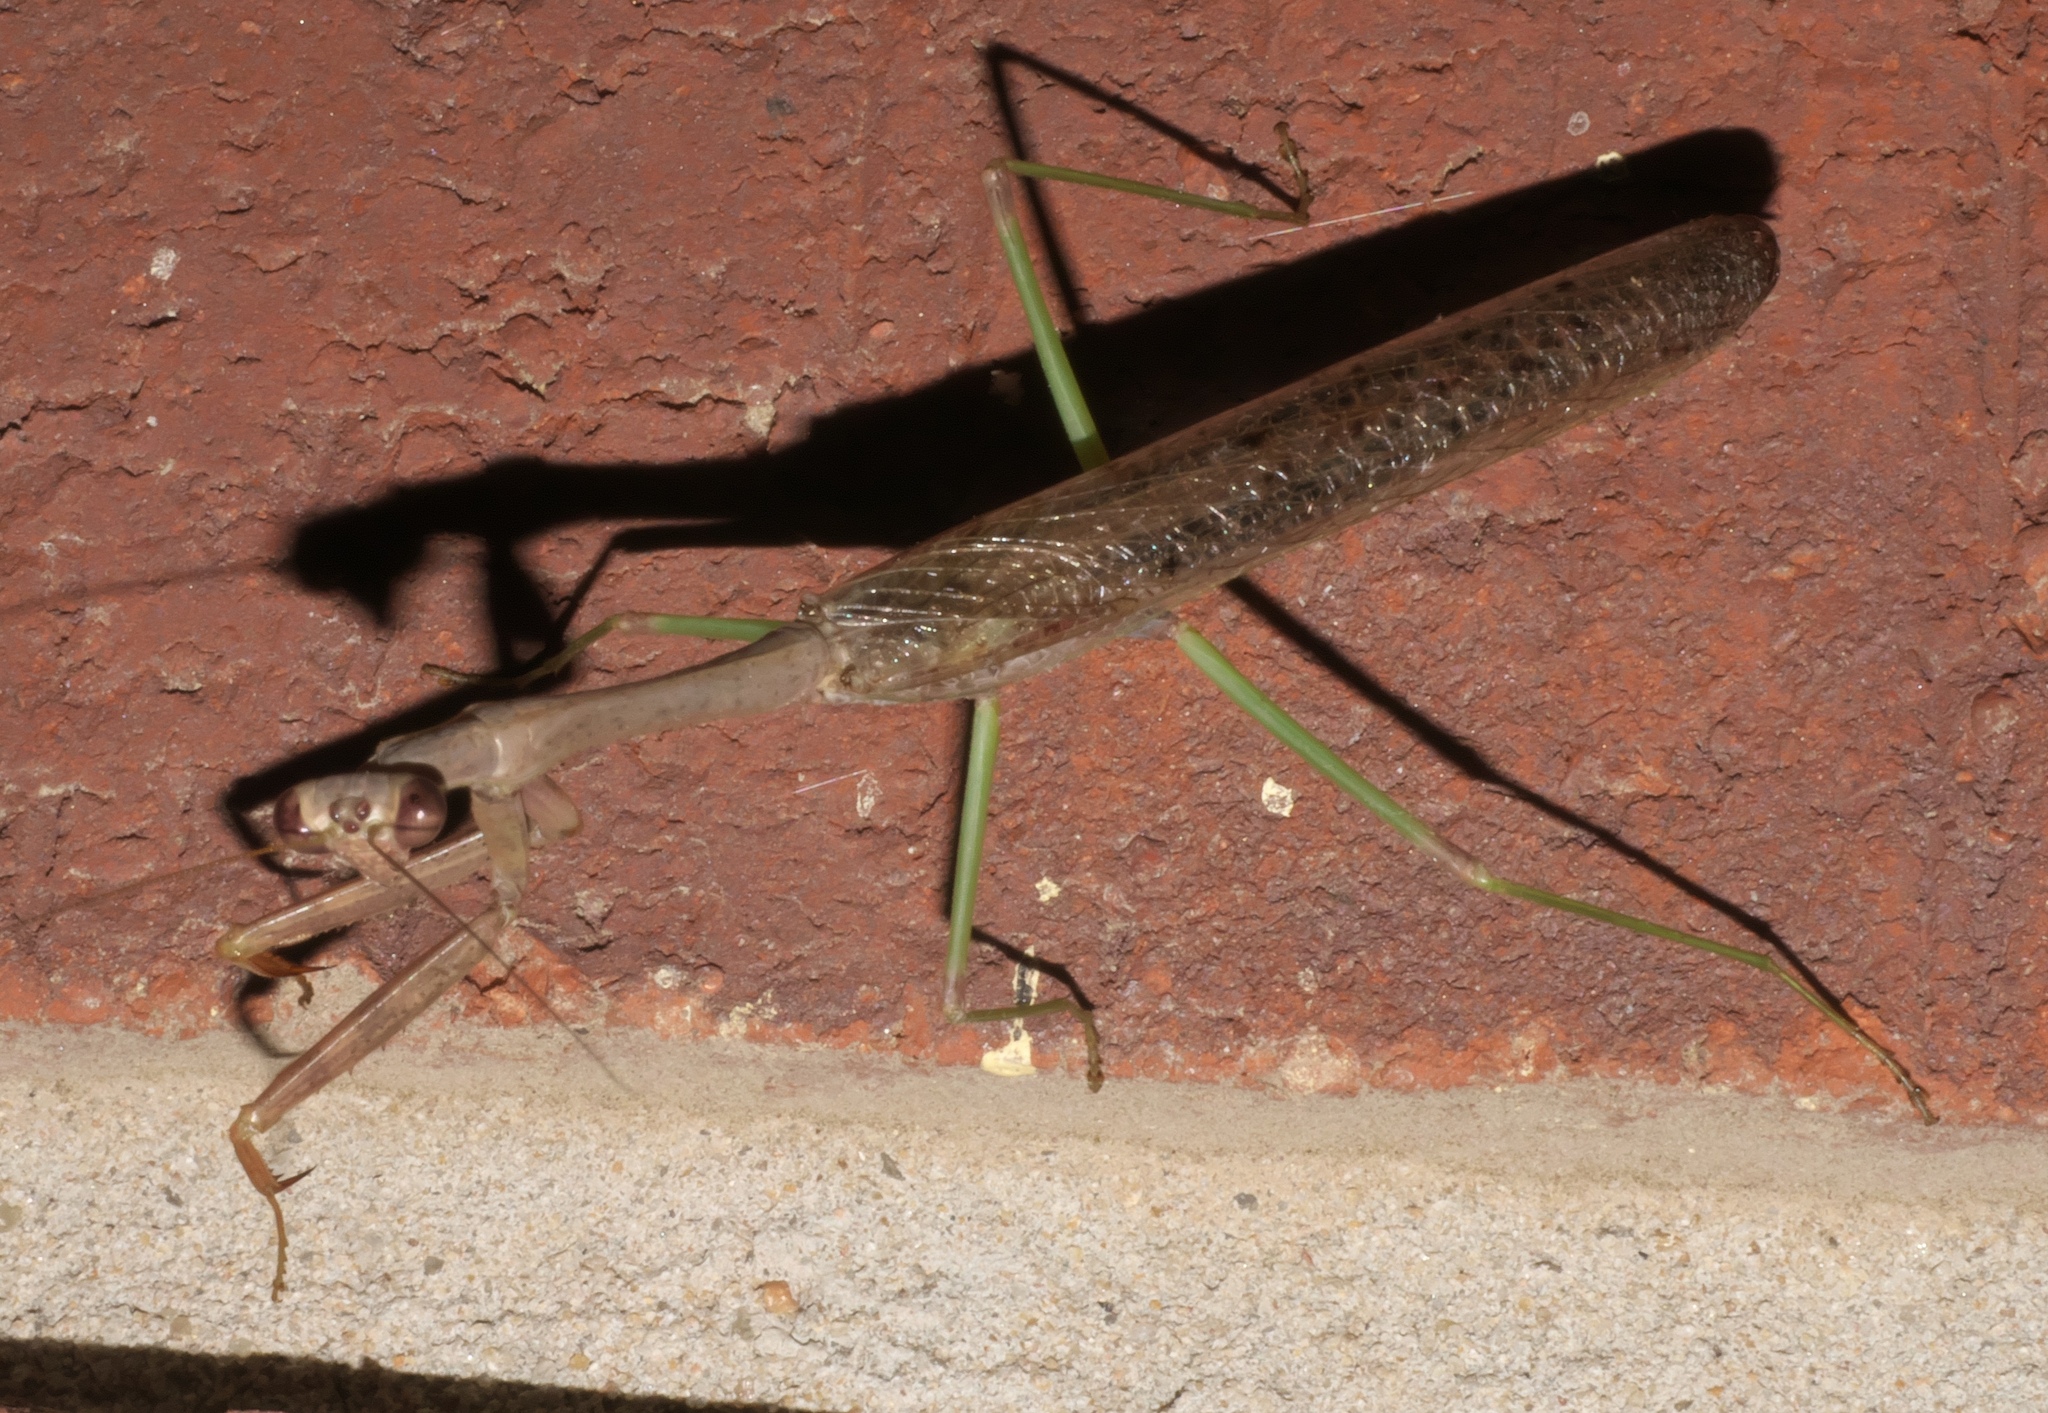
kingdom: Animalia
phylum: Arthropoda
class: Insecta
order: Mantodea
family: Mantidae
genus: Stagmomantis
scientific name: Stagmomantis carolina
